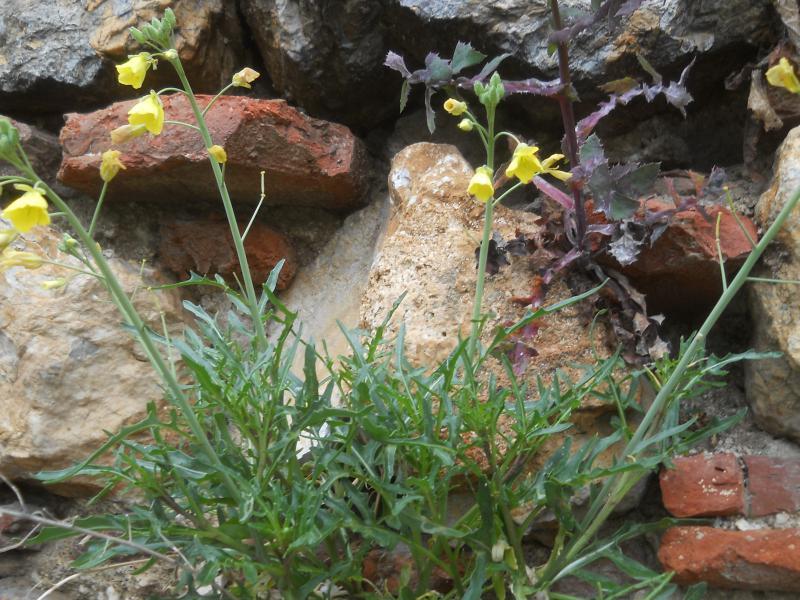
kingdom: Plantae
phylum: Tracheophyta
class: Magnoliopsida
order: Brassicales
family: Brassicaceae
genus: Diplotaxis
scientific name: Diplotaxis tenuifolia
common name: Perennial wall-rocket
